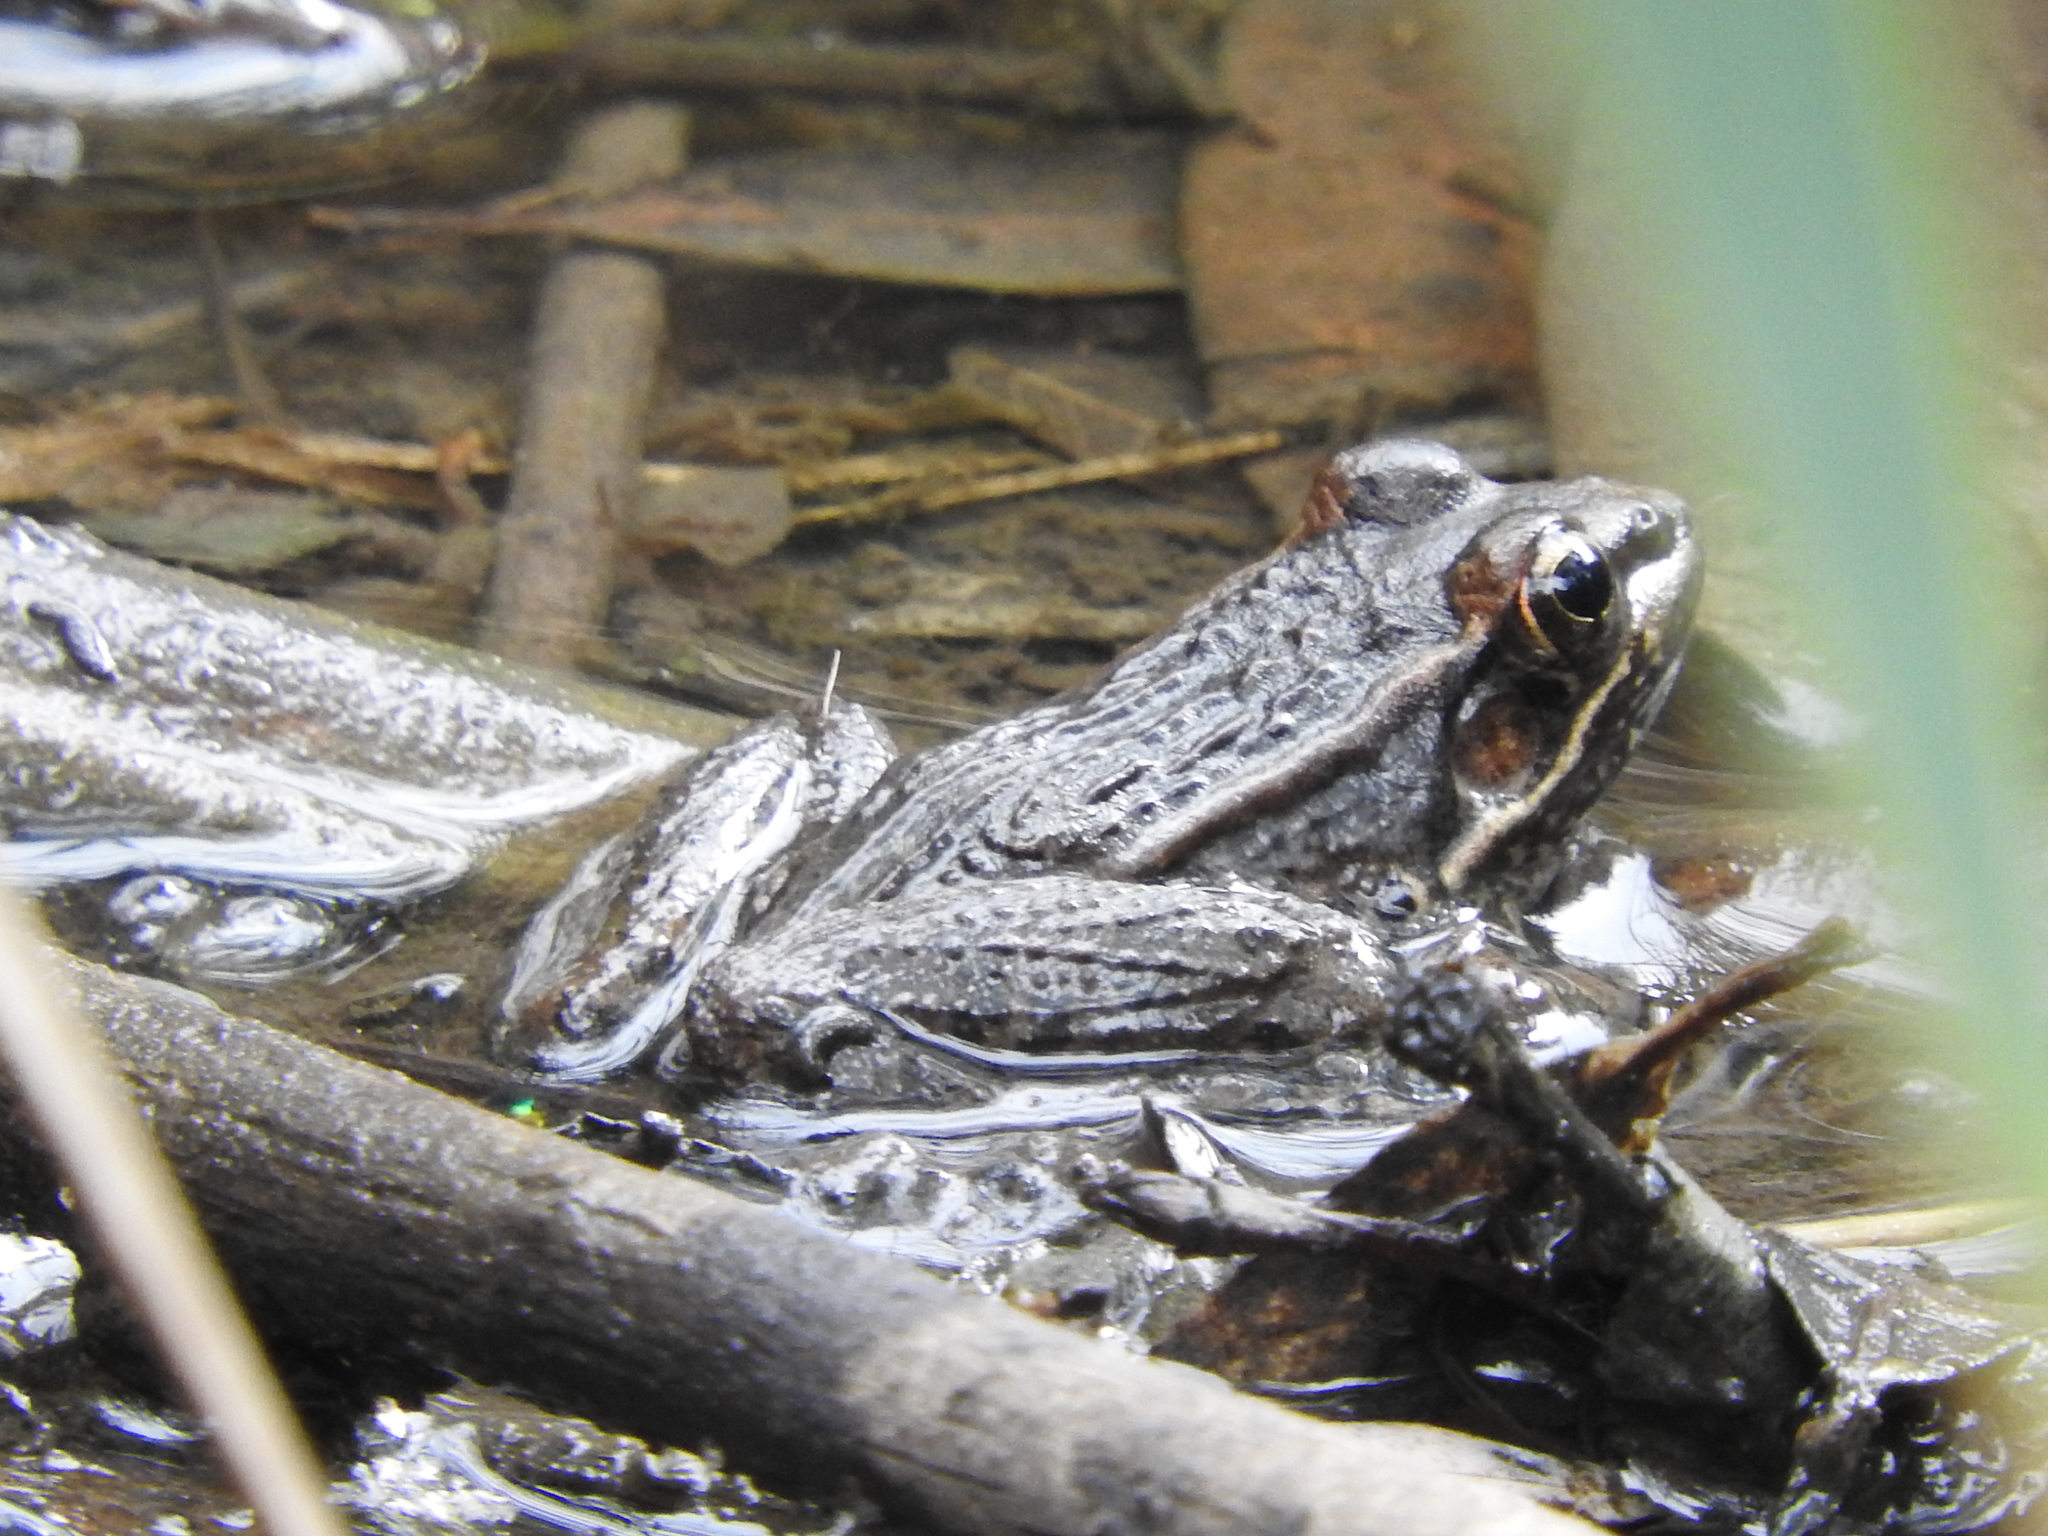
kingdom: Animalia
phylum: Chordata
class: Amphibia
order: Anura
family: Ranidae
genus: Lithobates
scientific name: Lithobates neovolcanicus
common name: Transverse volcanic leopard frog
